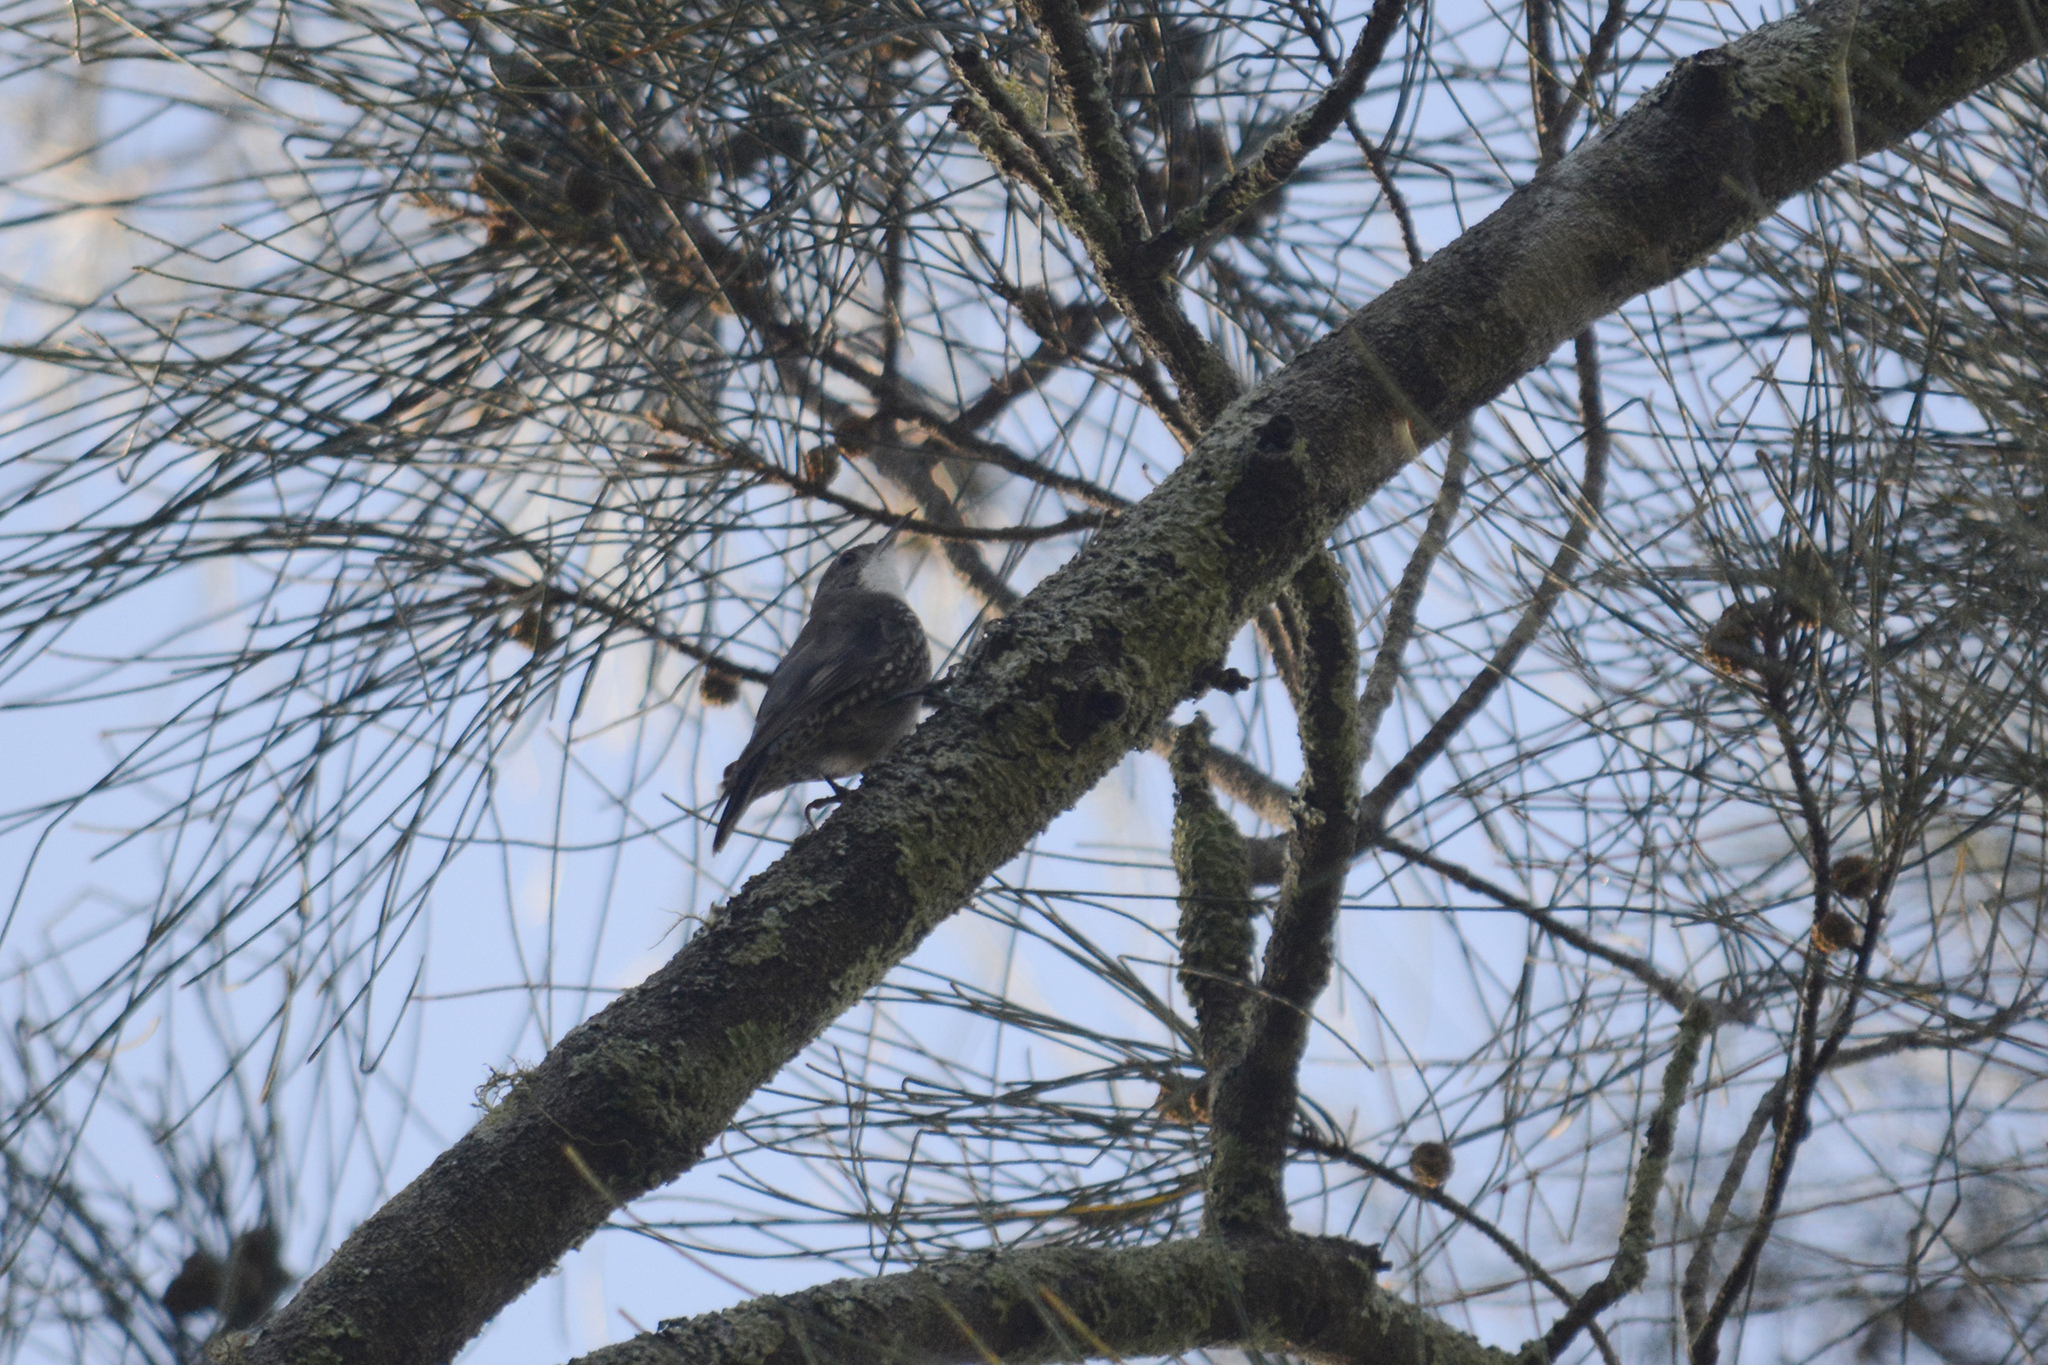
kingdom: Animalia
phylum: Chordata
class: Aves
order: Passeriformes
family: Climacteridae
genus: Cormobates
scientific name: Cormobates leucophaea
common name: White-throated treecreeper
